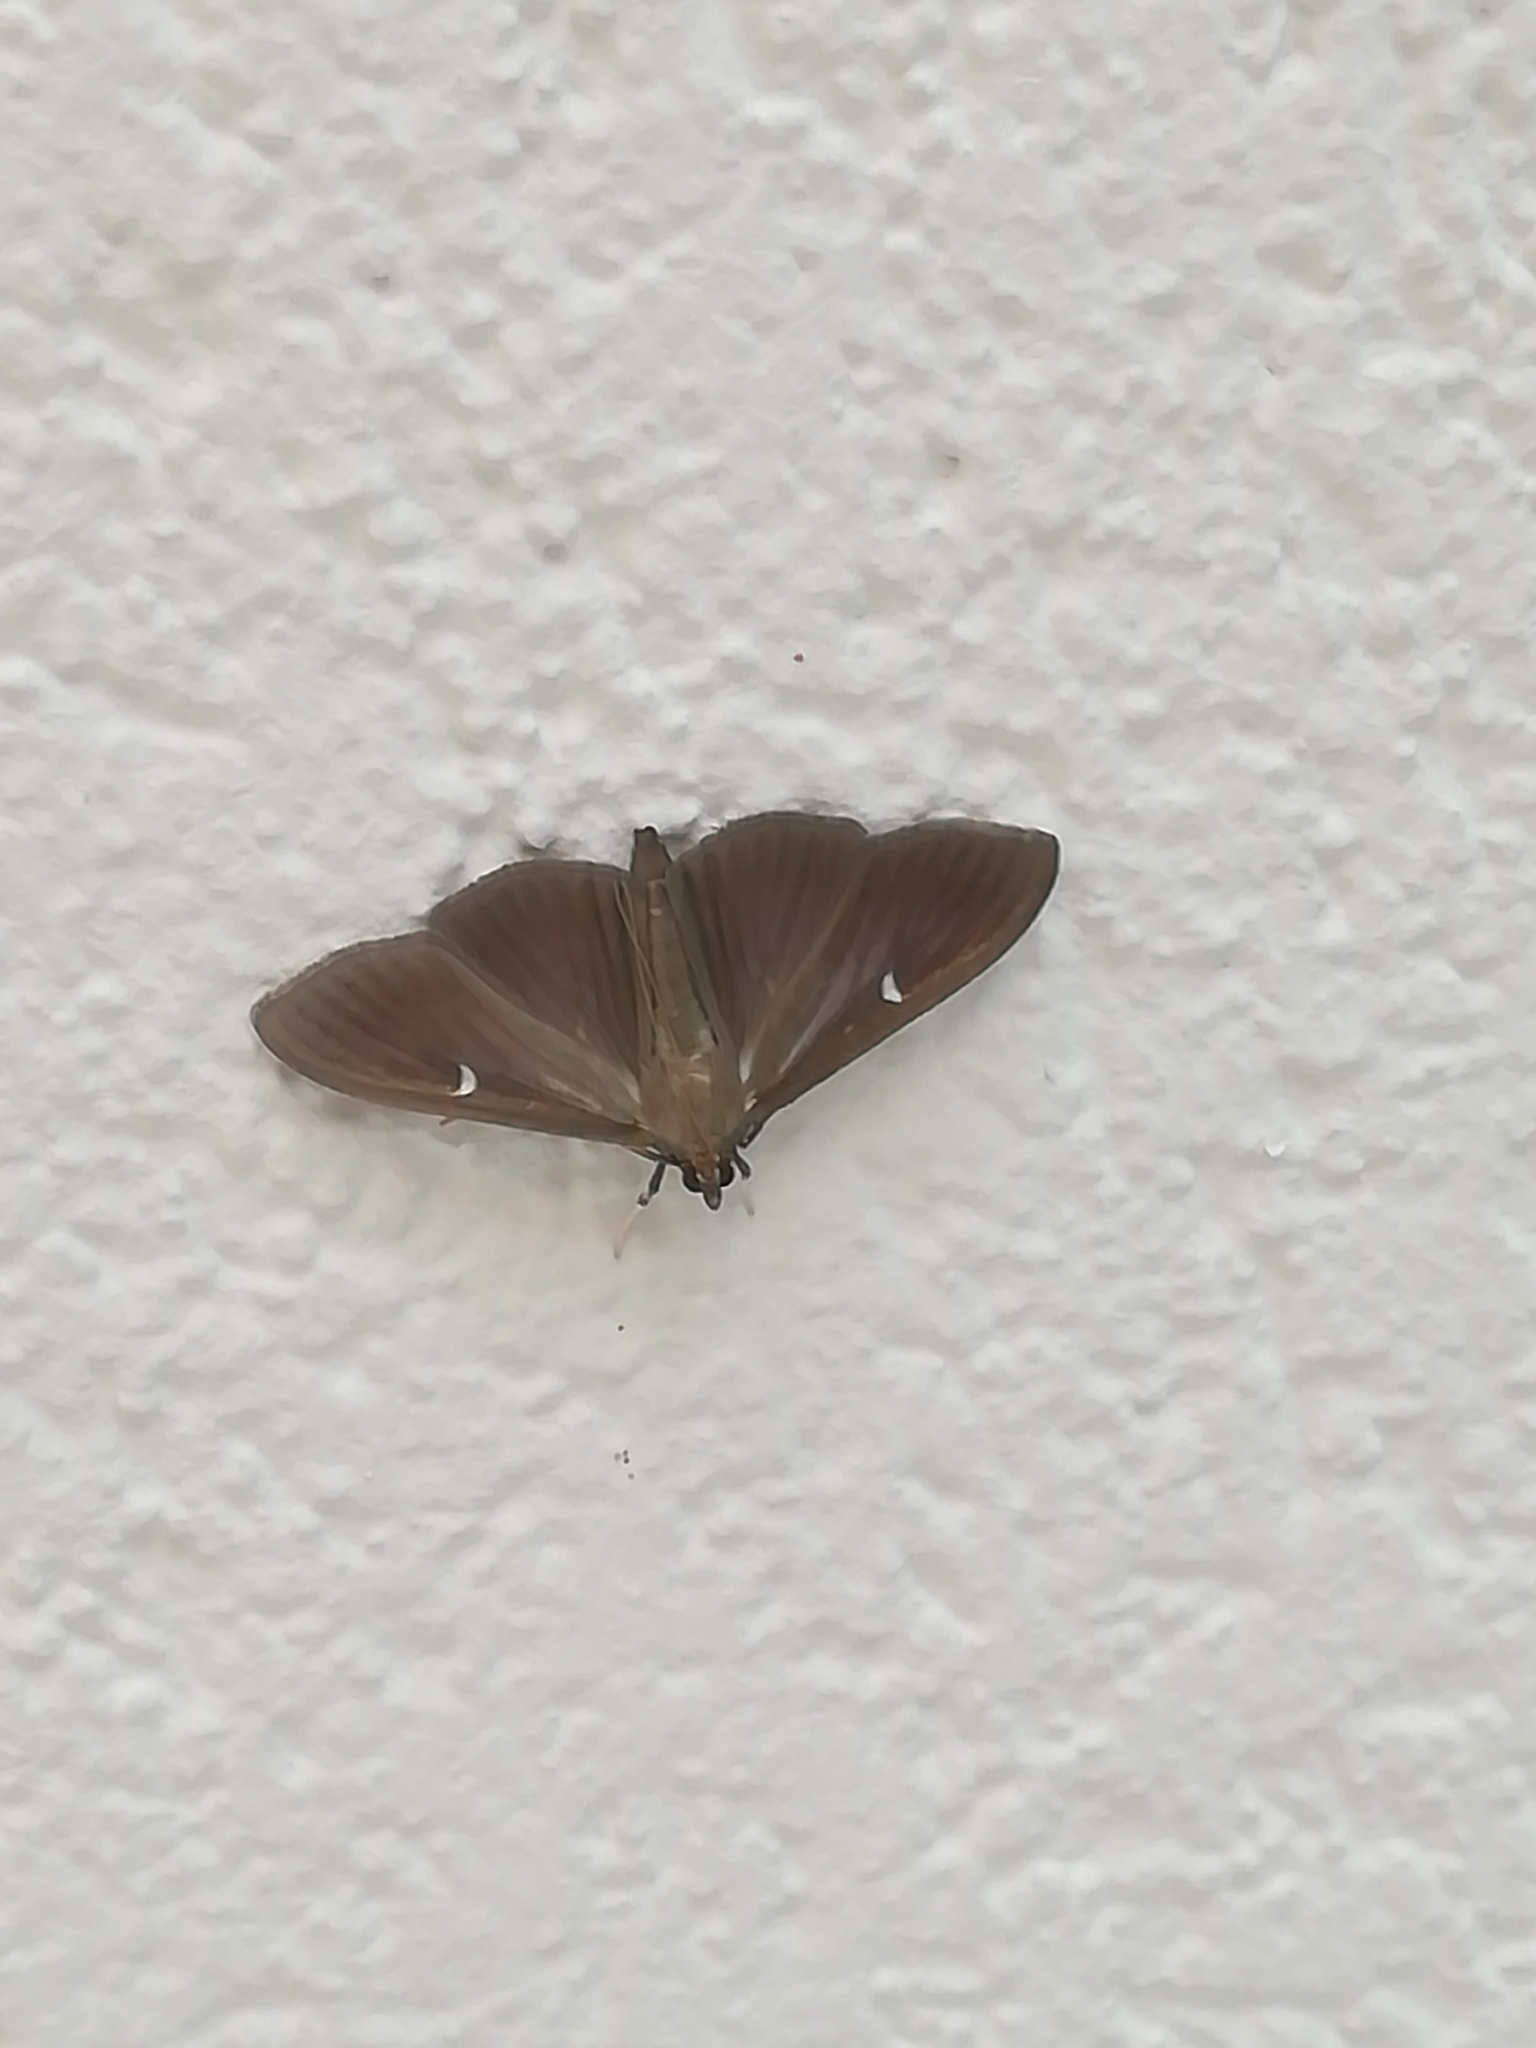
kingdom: Animalia
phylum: Arthropoda
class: Insecta
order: Lepidoptera
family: Crambidae
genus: Cydalima
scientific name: Cydalima perspectalis
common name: Box tree moth
